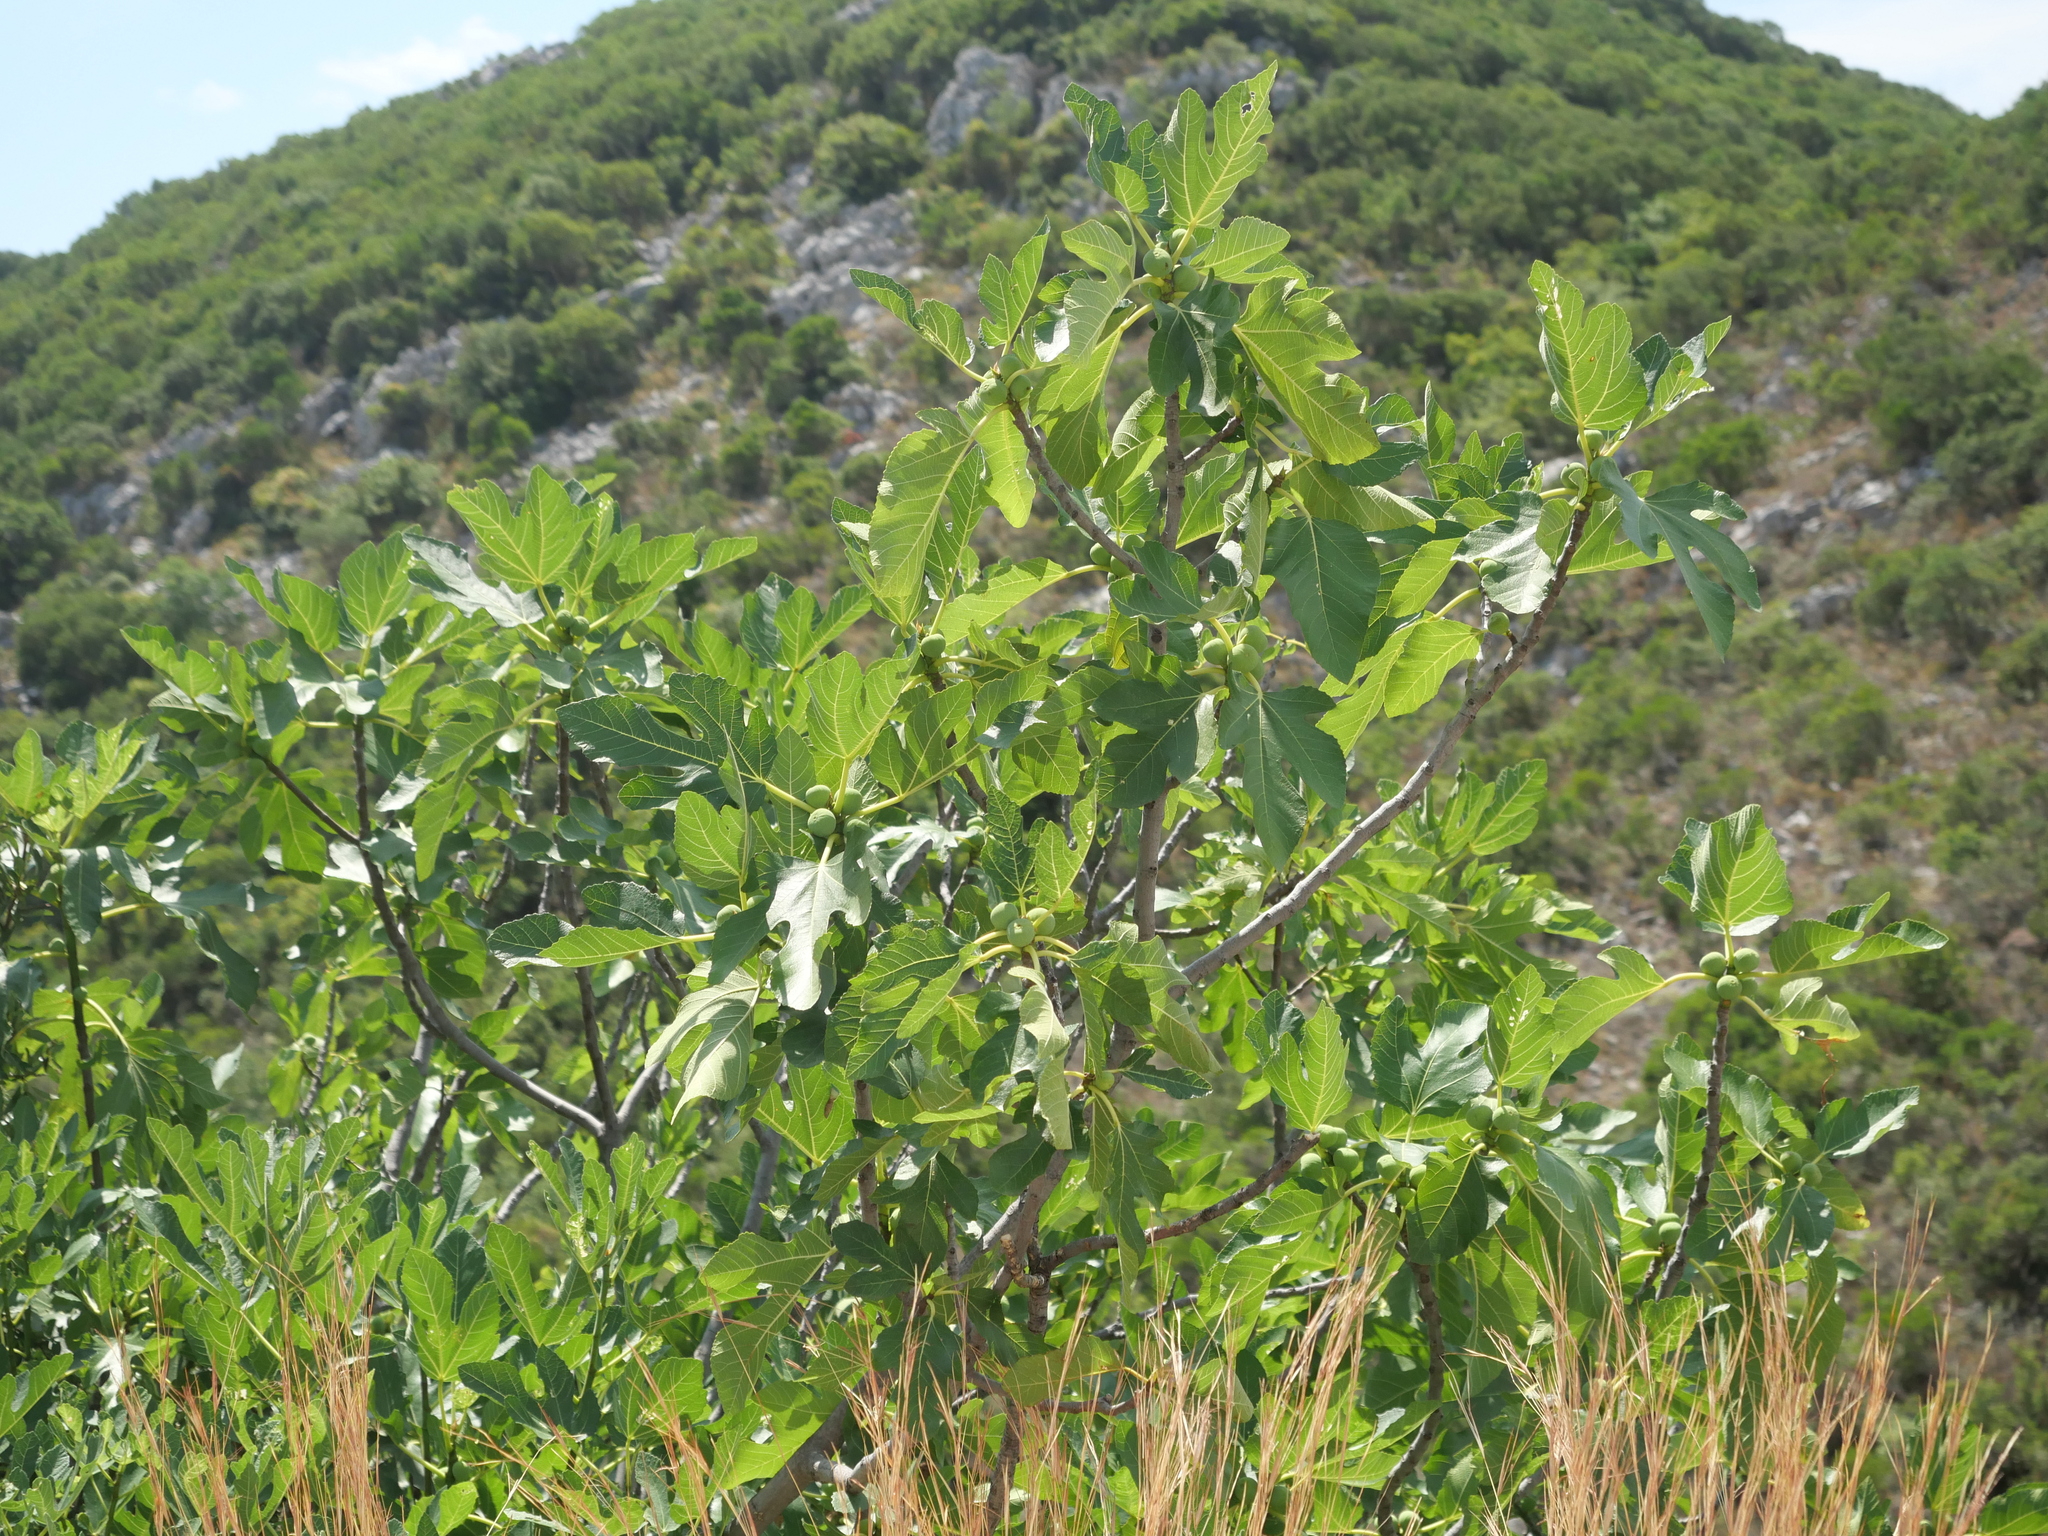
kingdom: Plantae
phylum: Tracheophyta
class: Magnoliopsida
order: Rosales
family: Moraceae
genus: Ficus
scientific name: Ficus carica
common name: Fig
